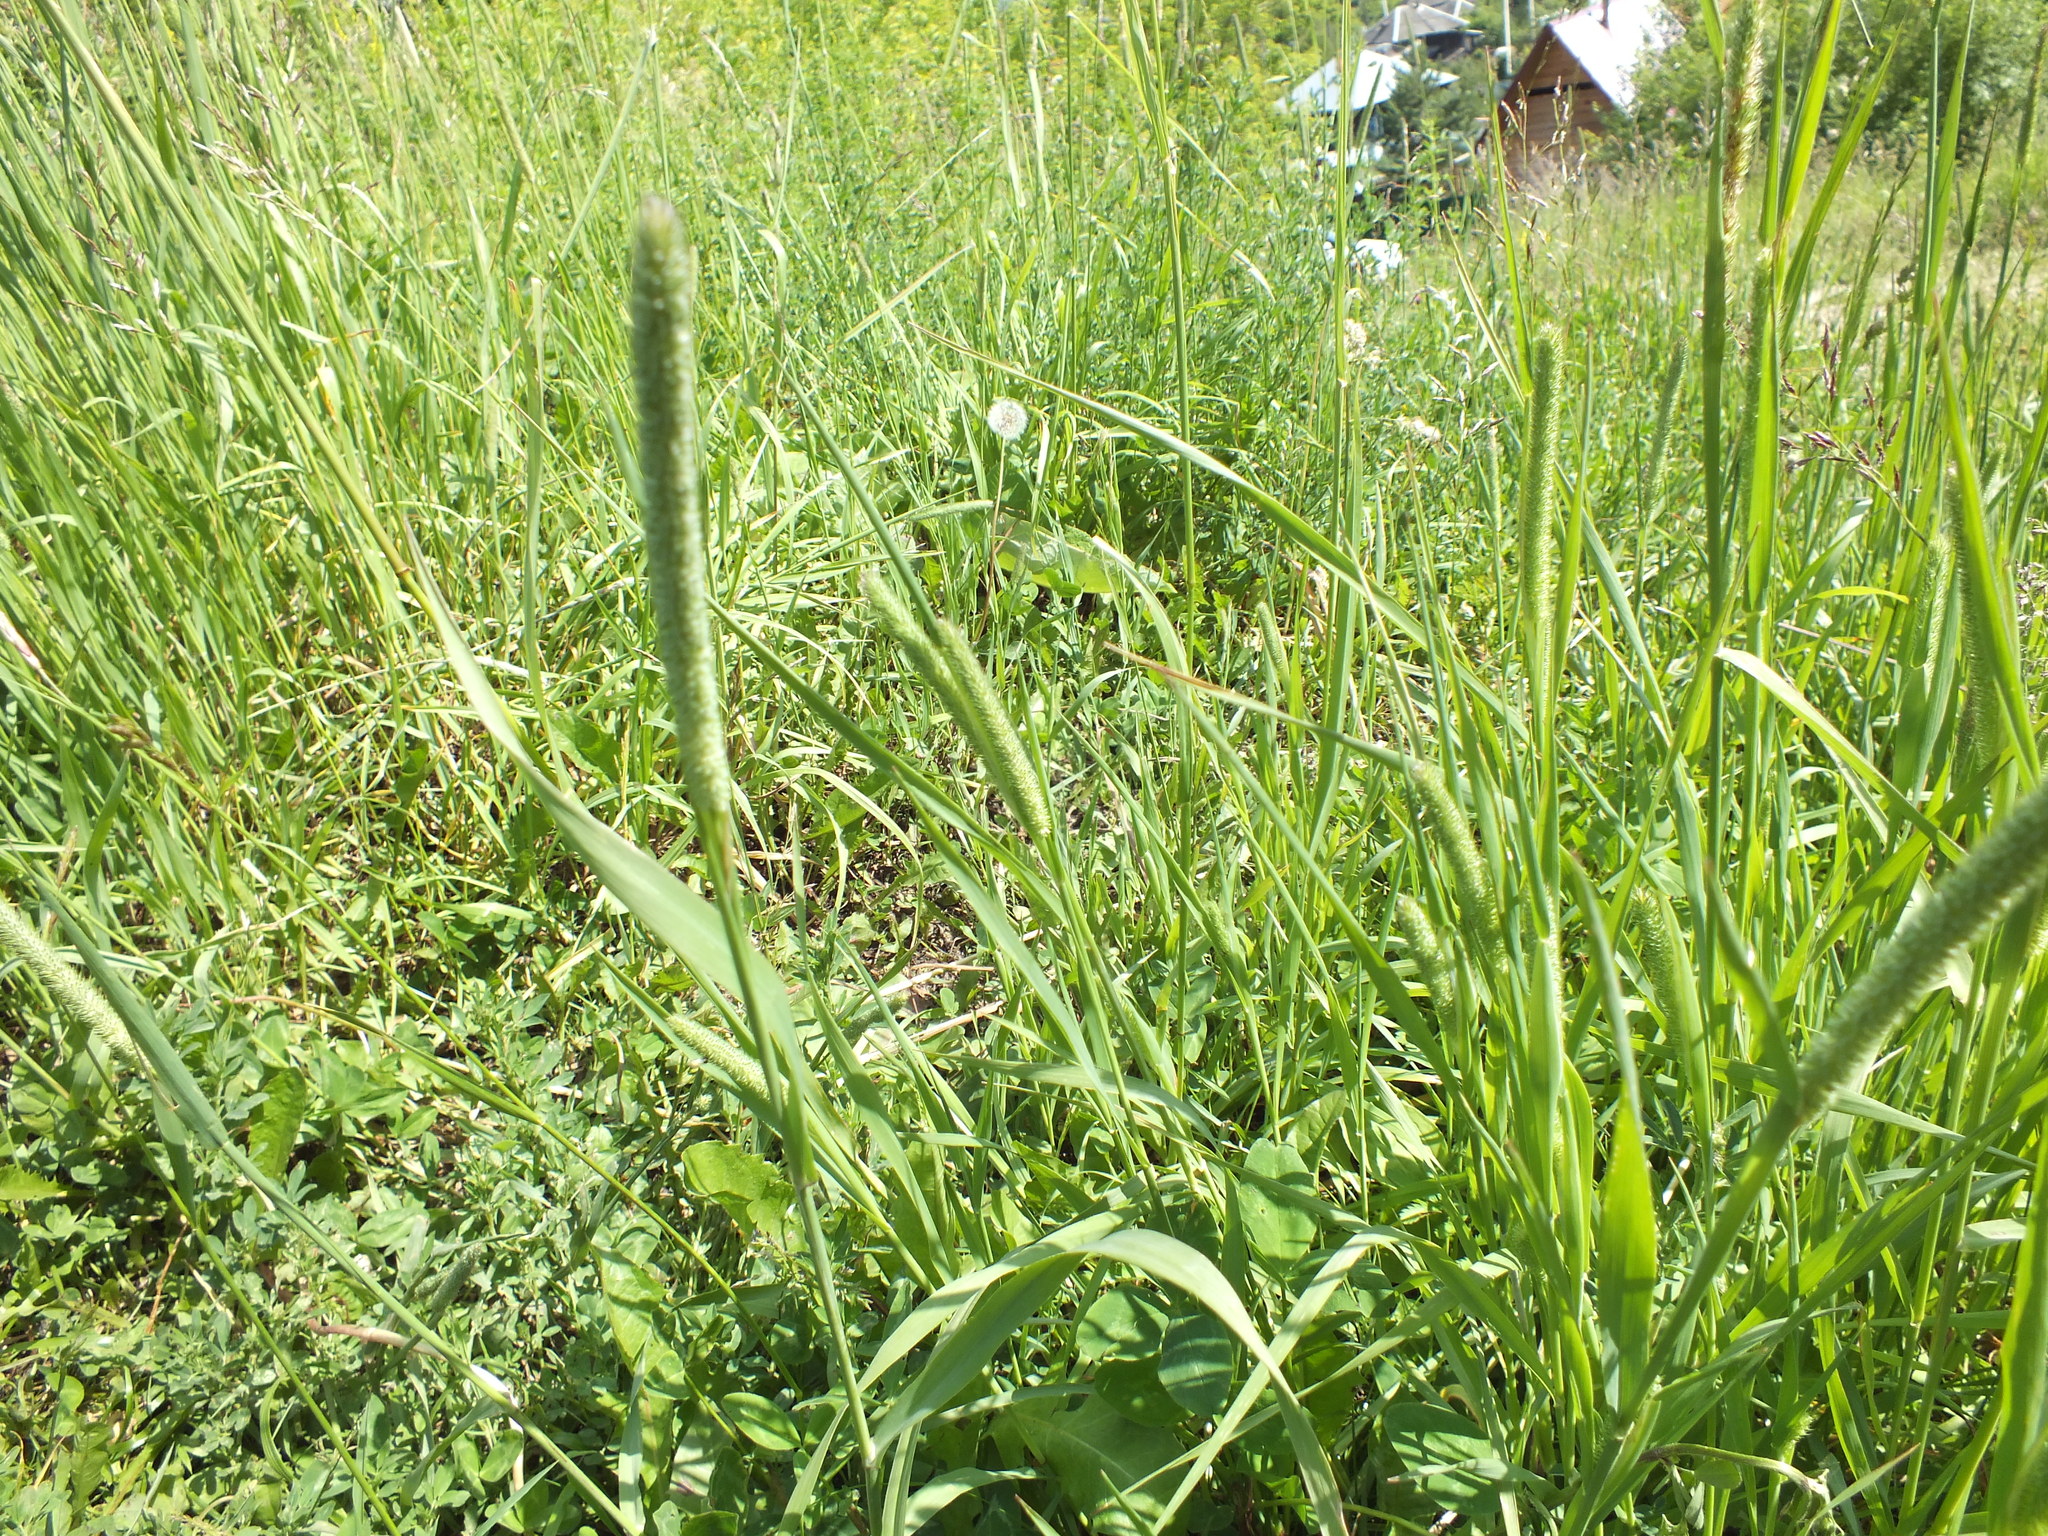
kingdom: Plantae
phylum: Tracheophyta
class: Liliopsida
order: Poales
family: Poaceae
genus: Phleum
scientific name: Phleum pratense
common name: Timothy grass
